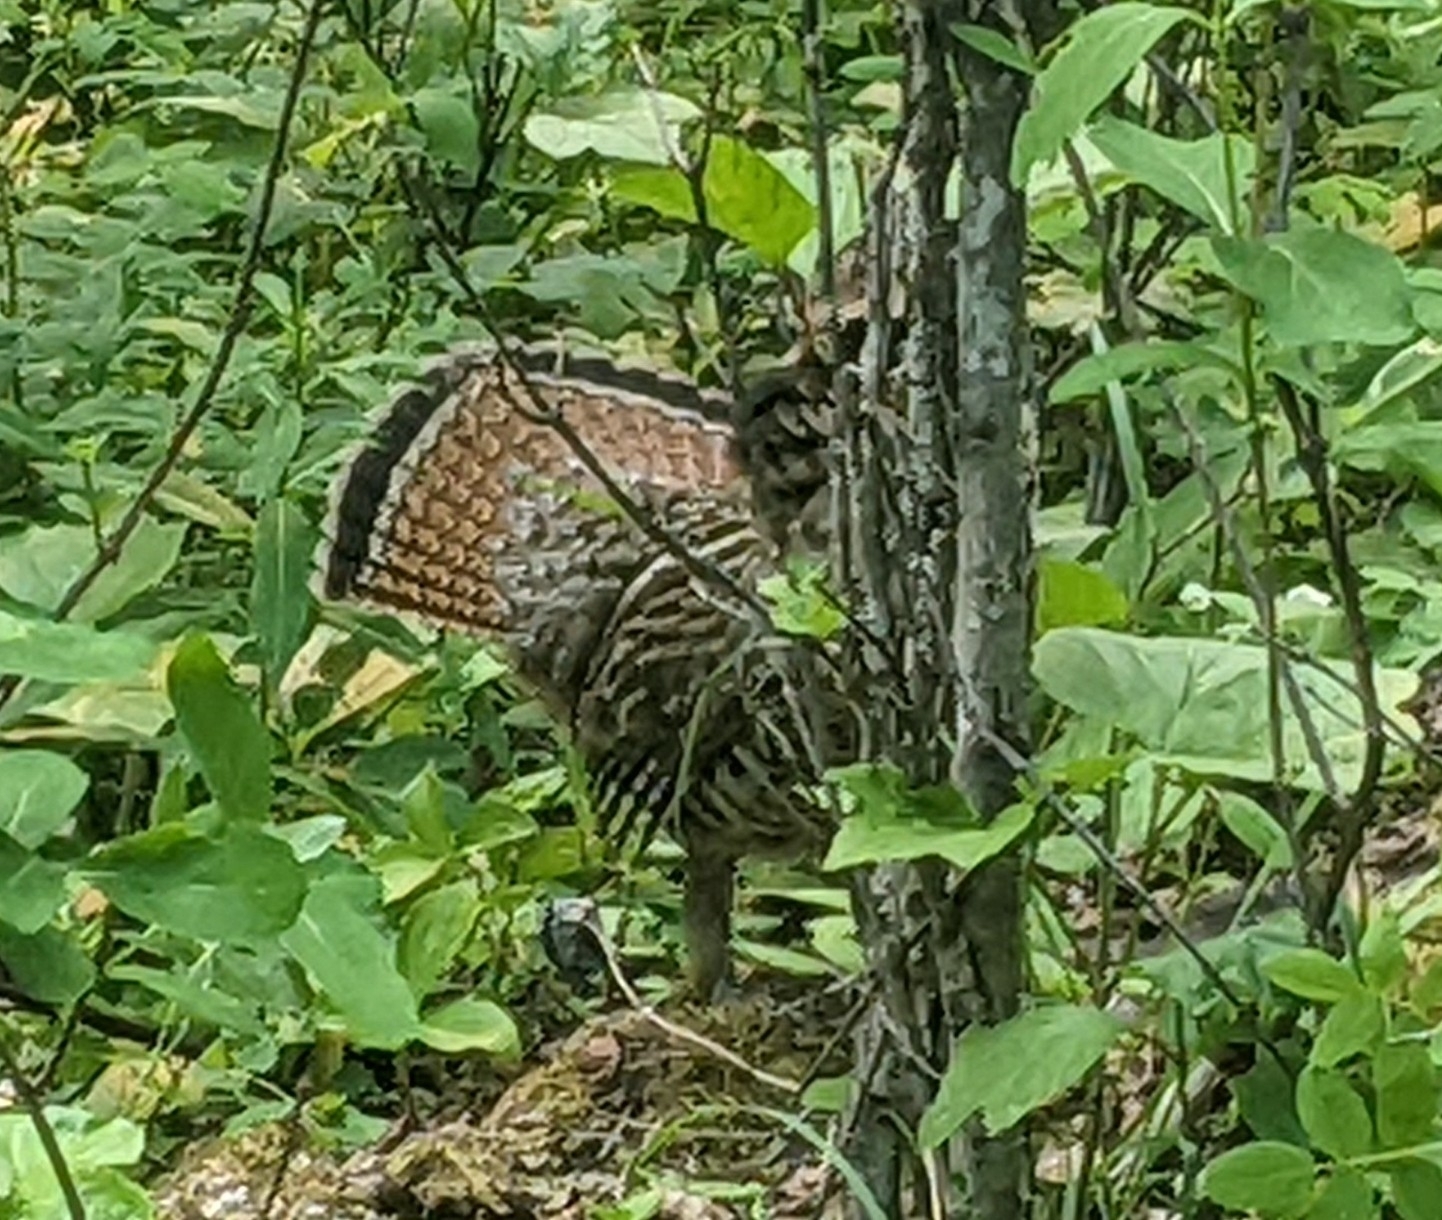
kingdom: Animalia
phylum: Chordata
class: Aves
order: Galliformes
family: Phasianidae
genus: Bonasa
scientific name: Bonasa umbellus
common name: Ruffed grouse
